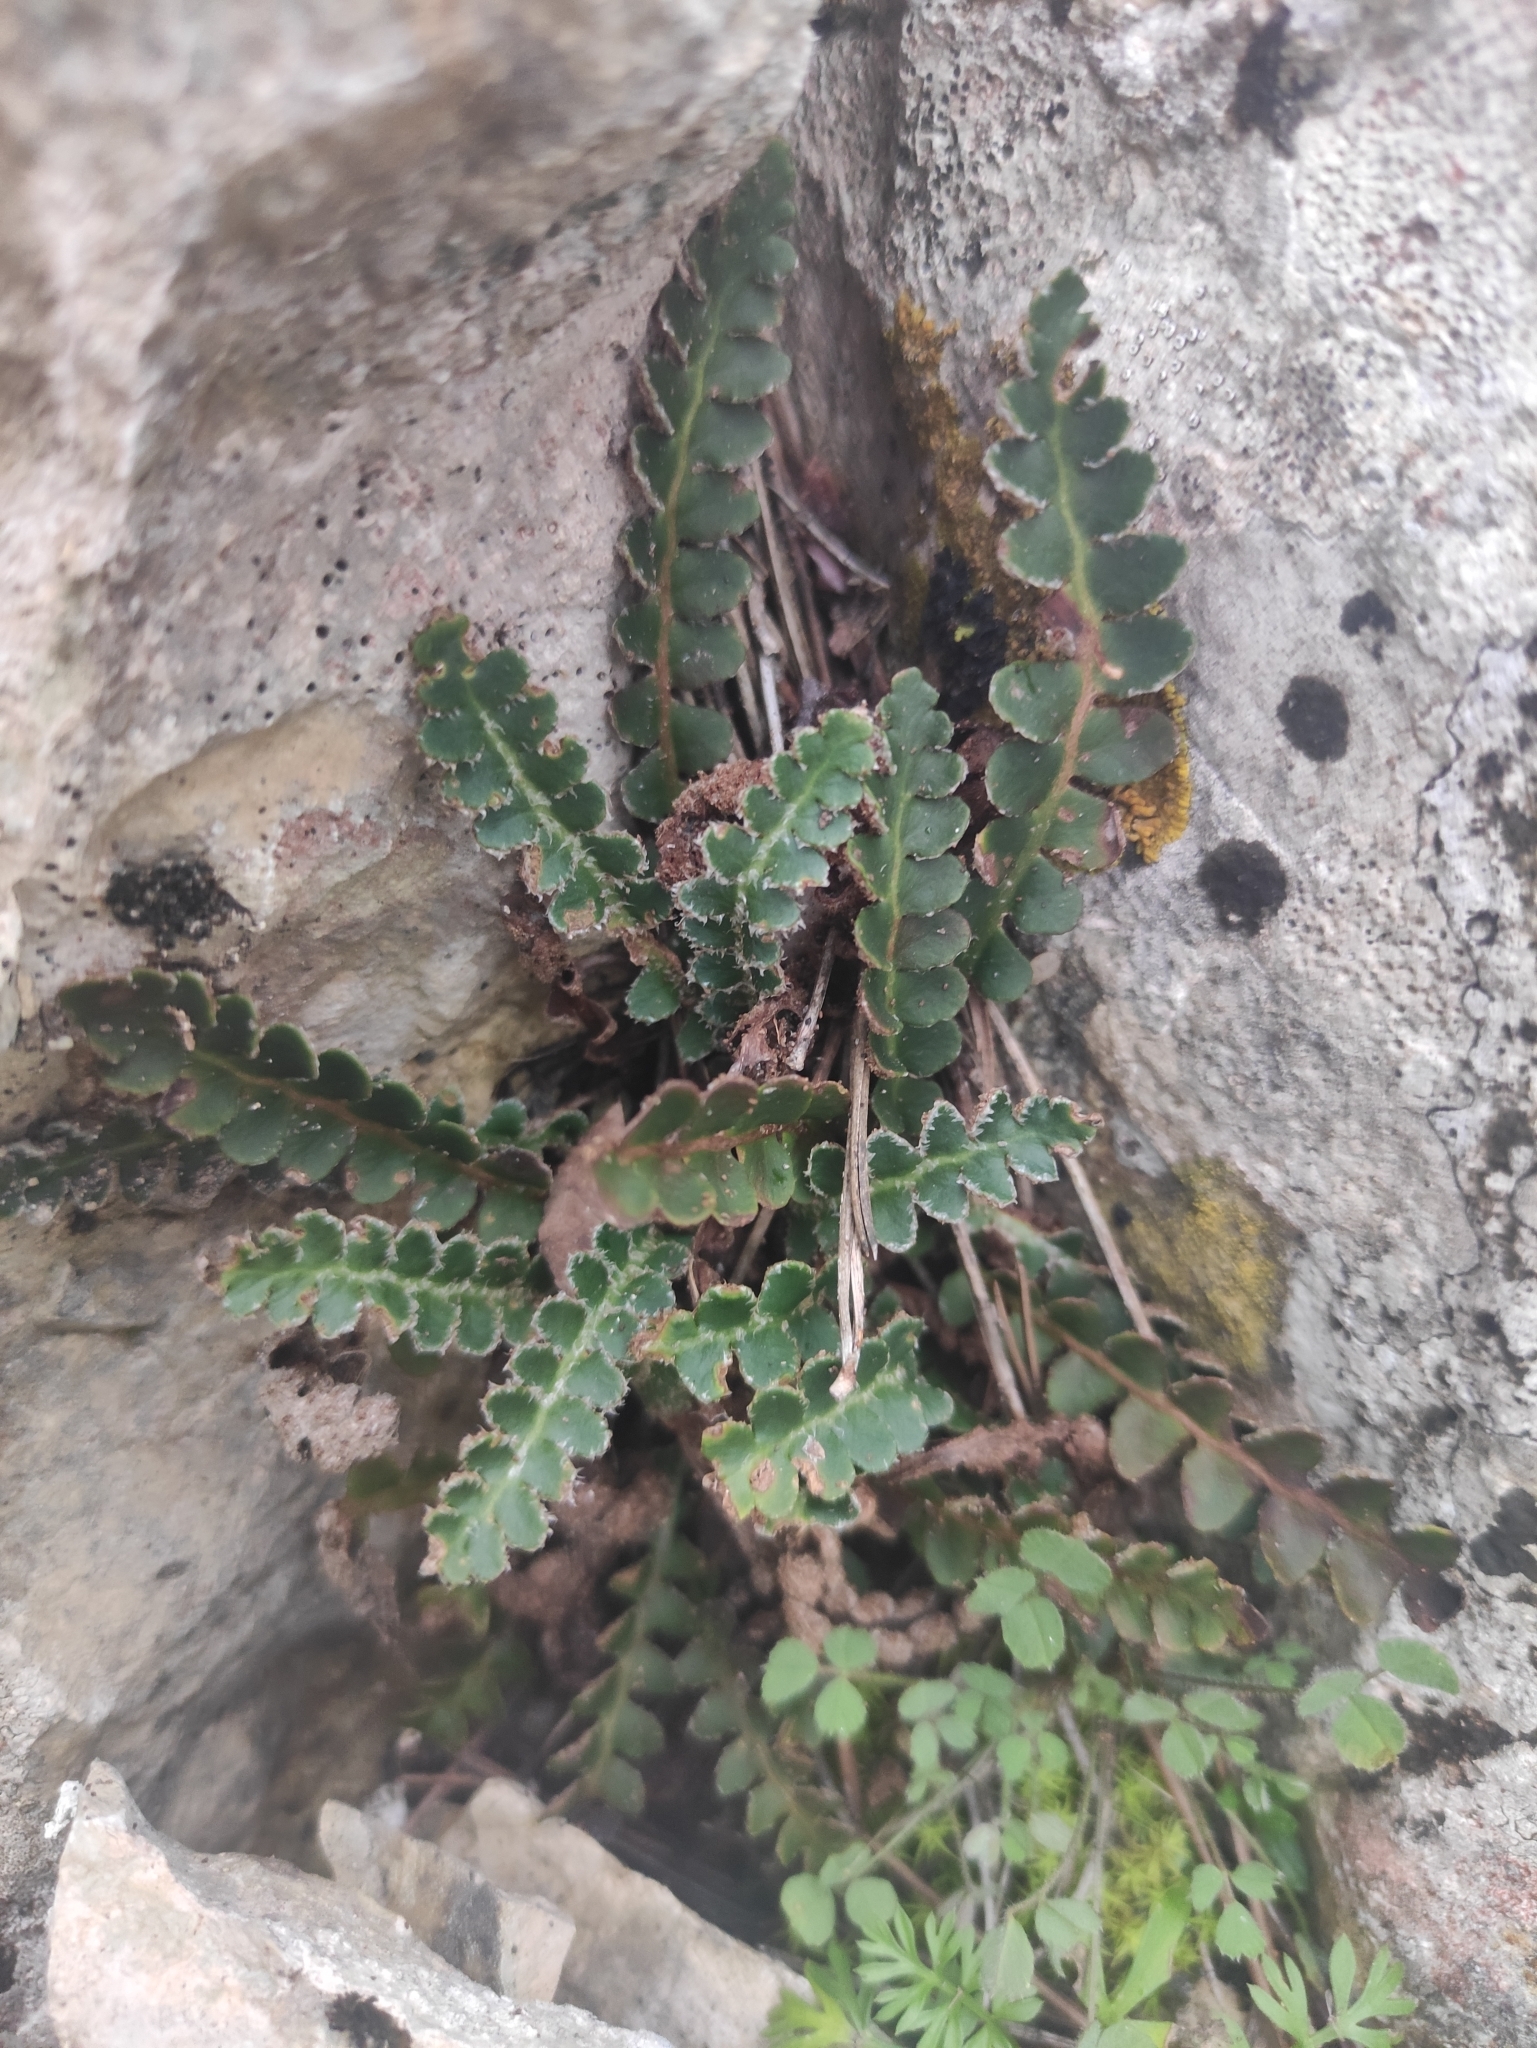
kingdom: Plantae
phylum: Tracheophyta
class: Polypodiopsida
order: Polypodiales
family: Aspleniaceae
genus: Asplenium
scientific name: Asplenium ceterach
